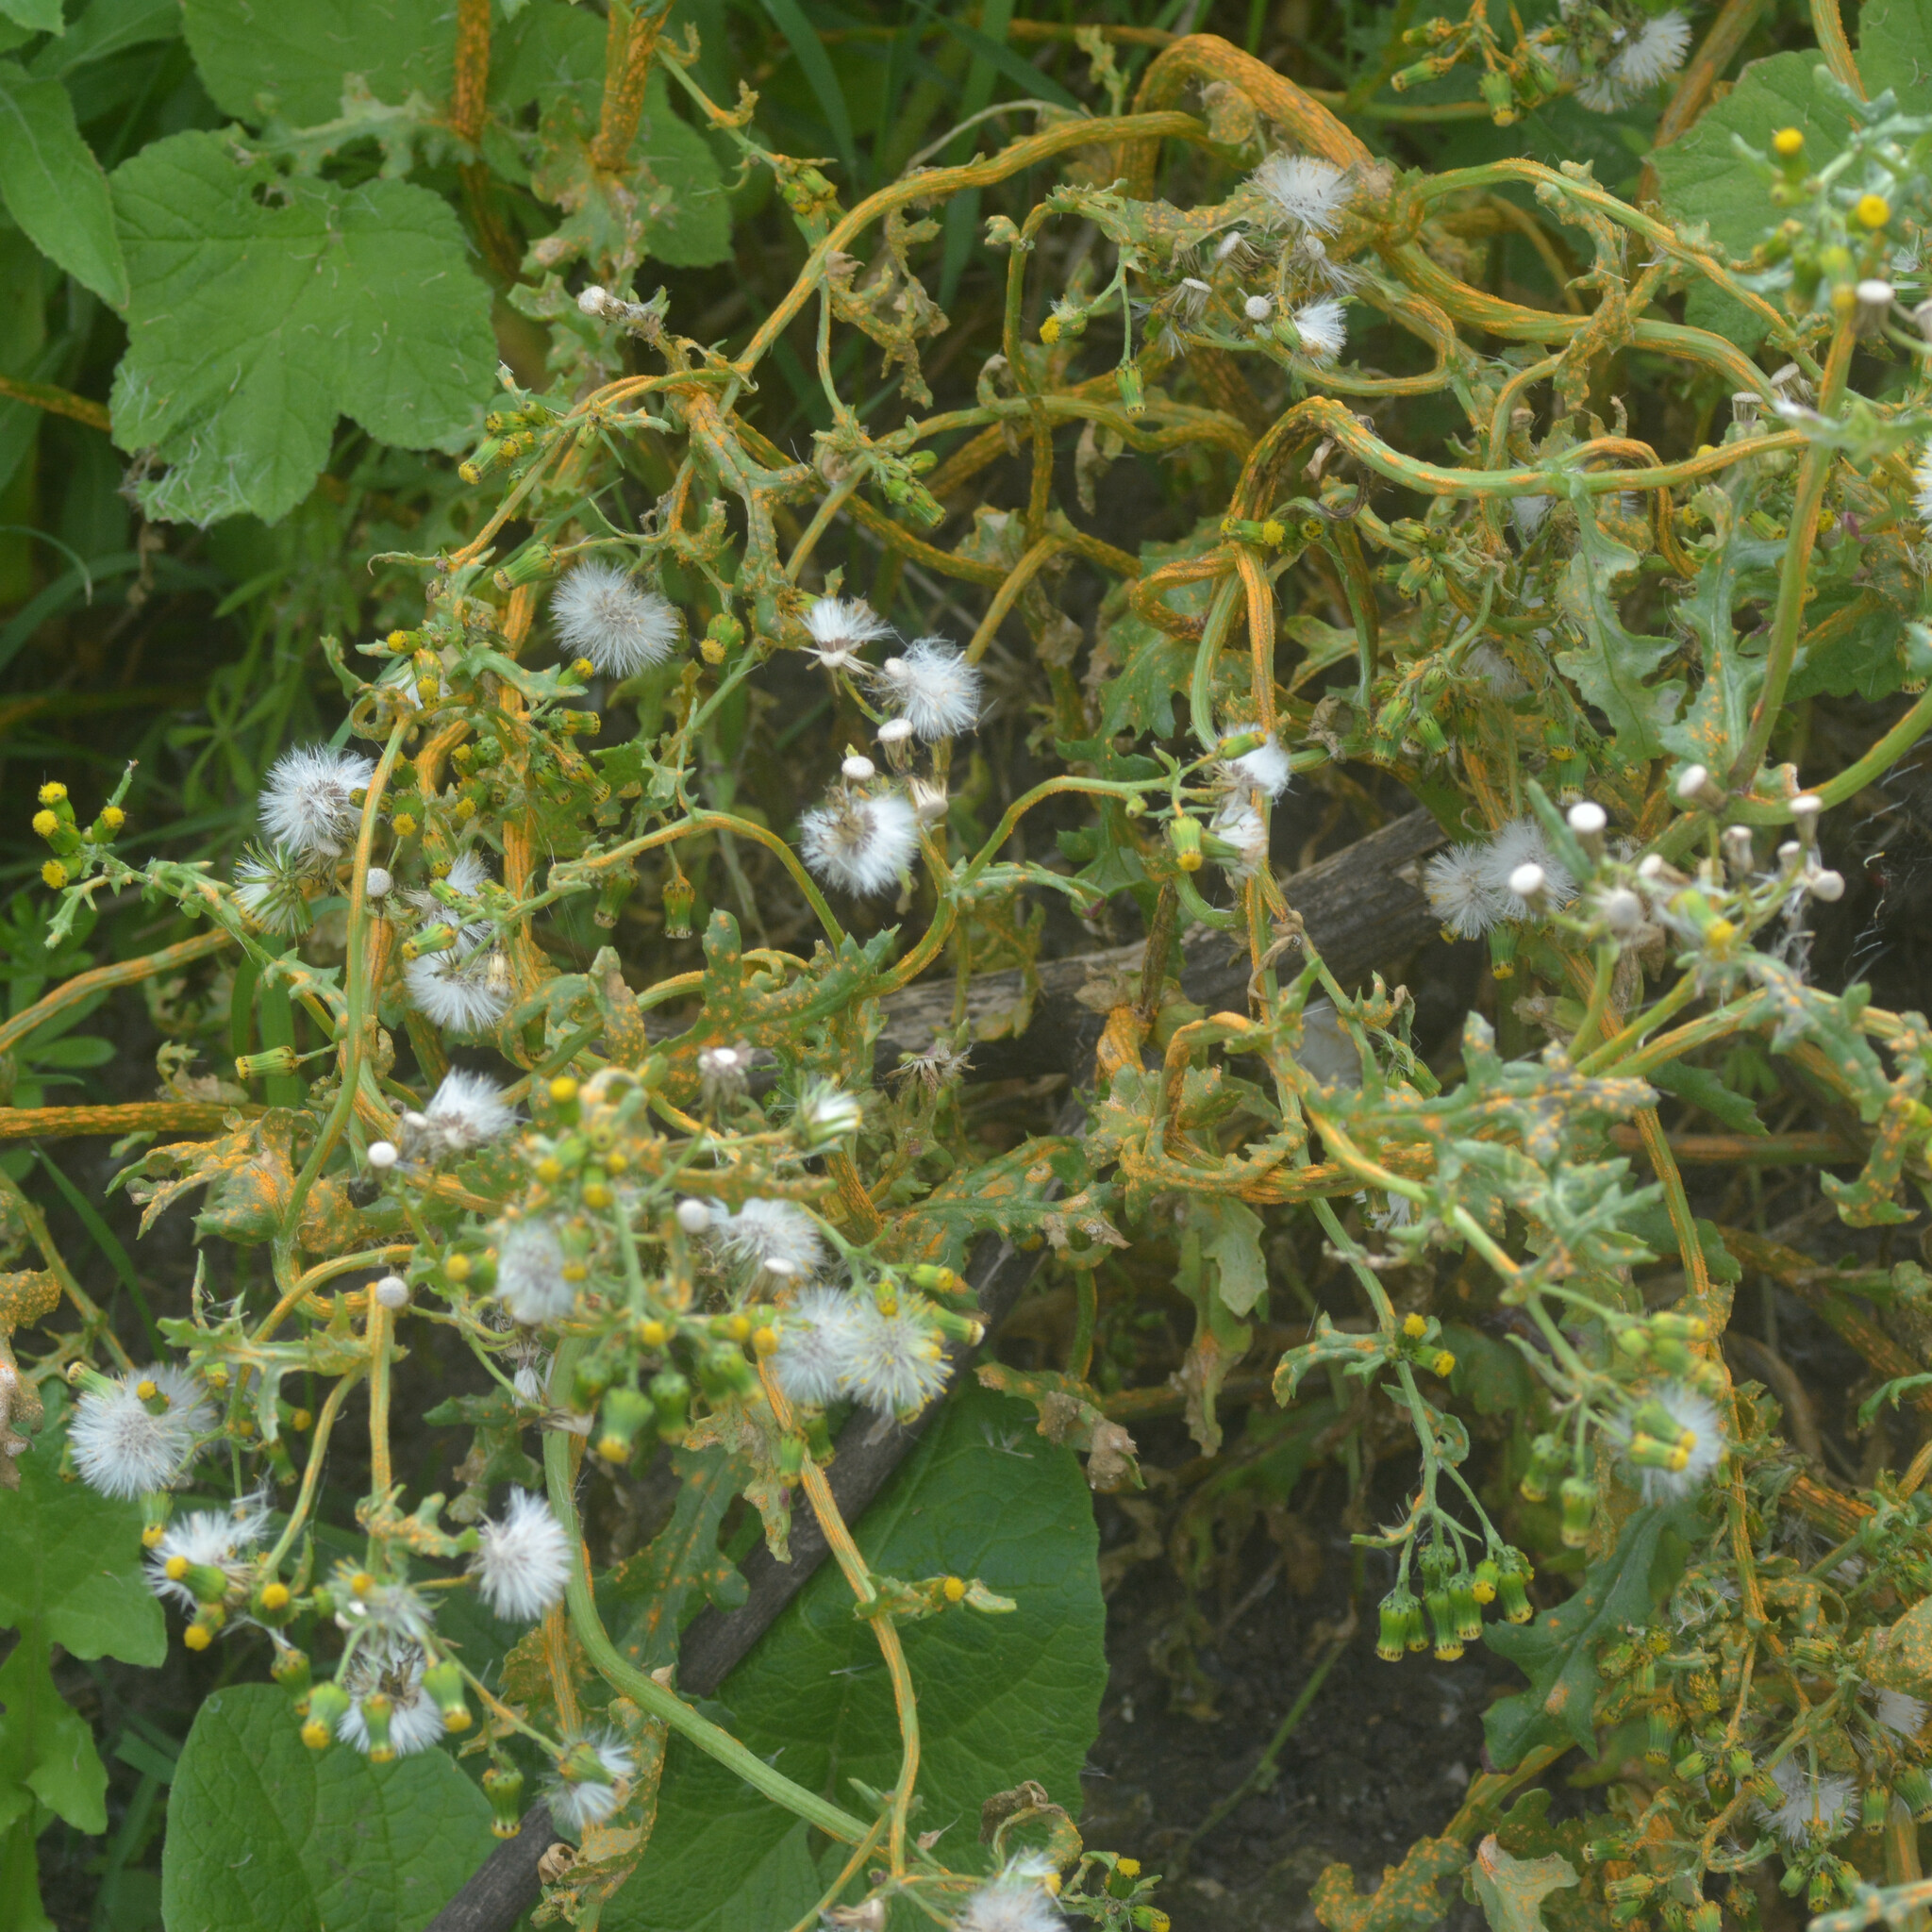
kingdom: Fungi
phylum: Basidiomycota
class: Pucciniomycetes
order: Pucciniales
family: Pucciniaceae
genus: Puccinia
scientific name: Puccinia lagenophorae
